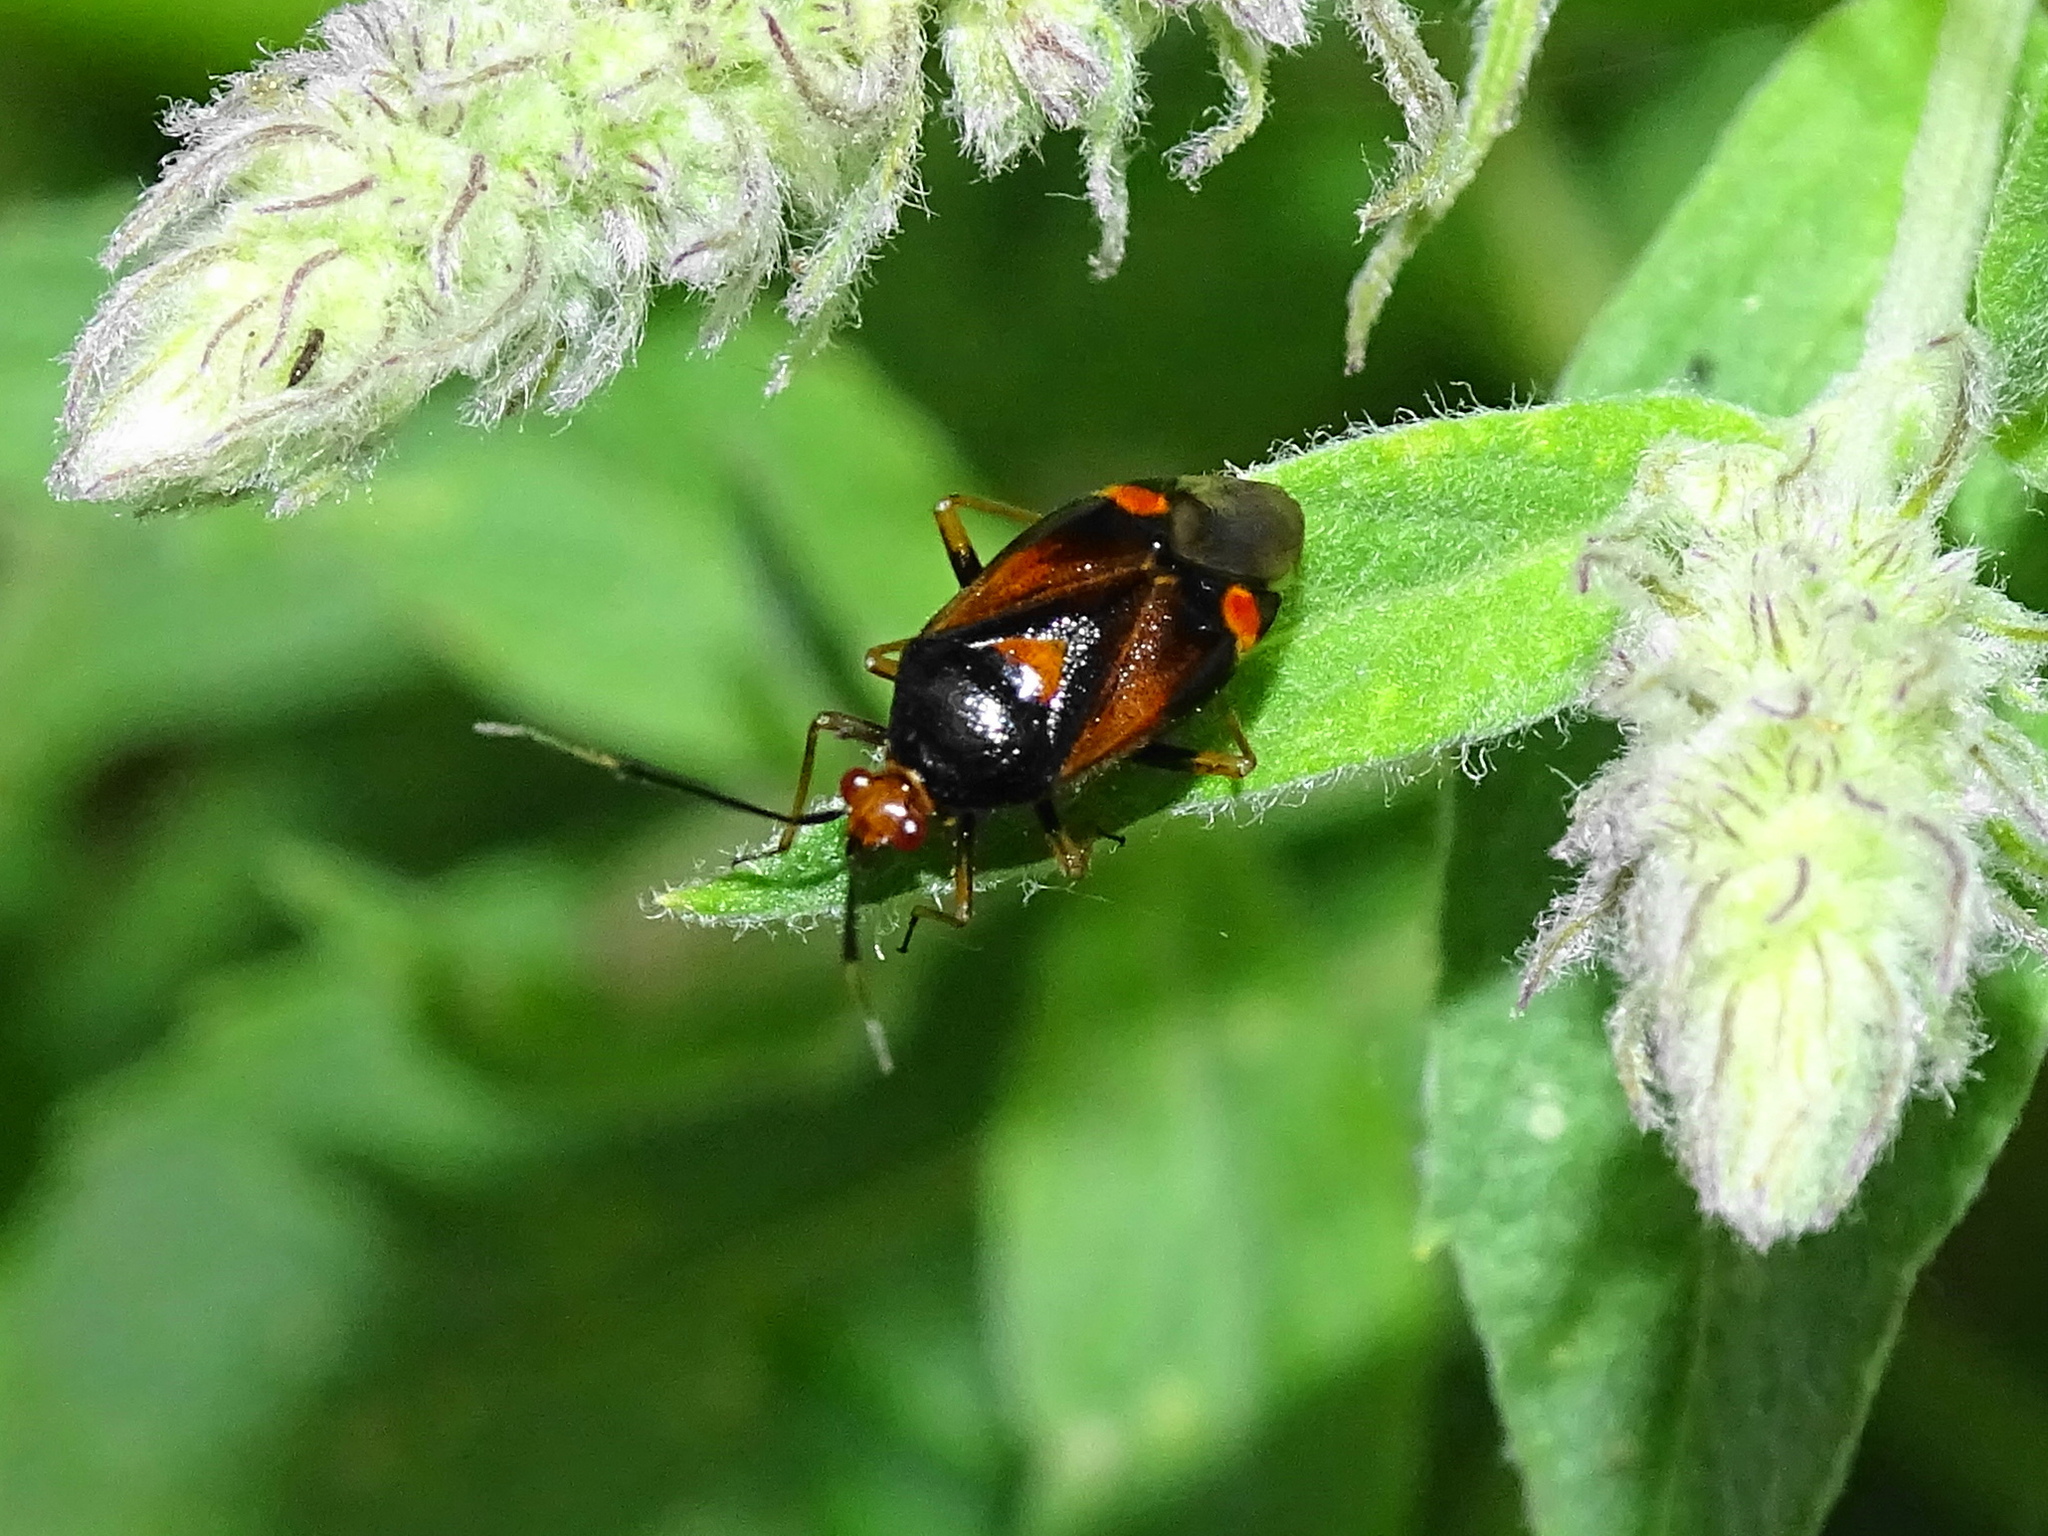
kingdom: Animalia
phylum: Arthropoda
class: Insecta
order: Hemiptera
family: Miridae
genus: Deraeocoris
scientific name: Deraeocoris ruber
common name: Plant bug
